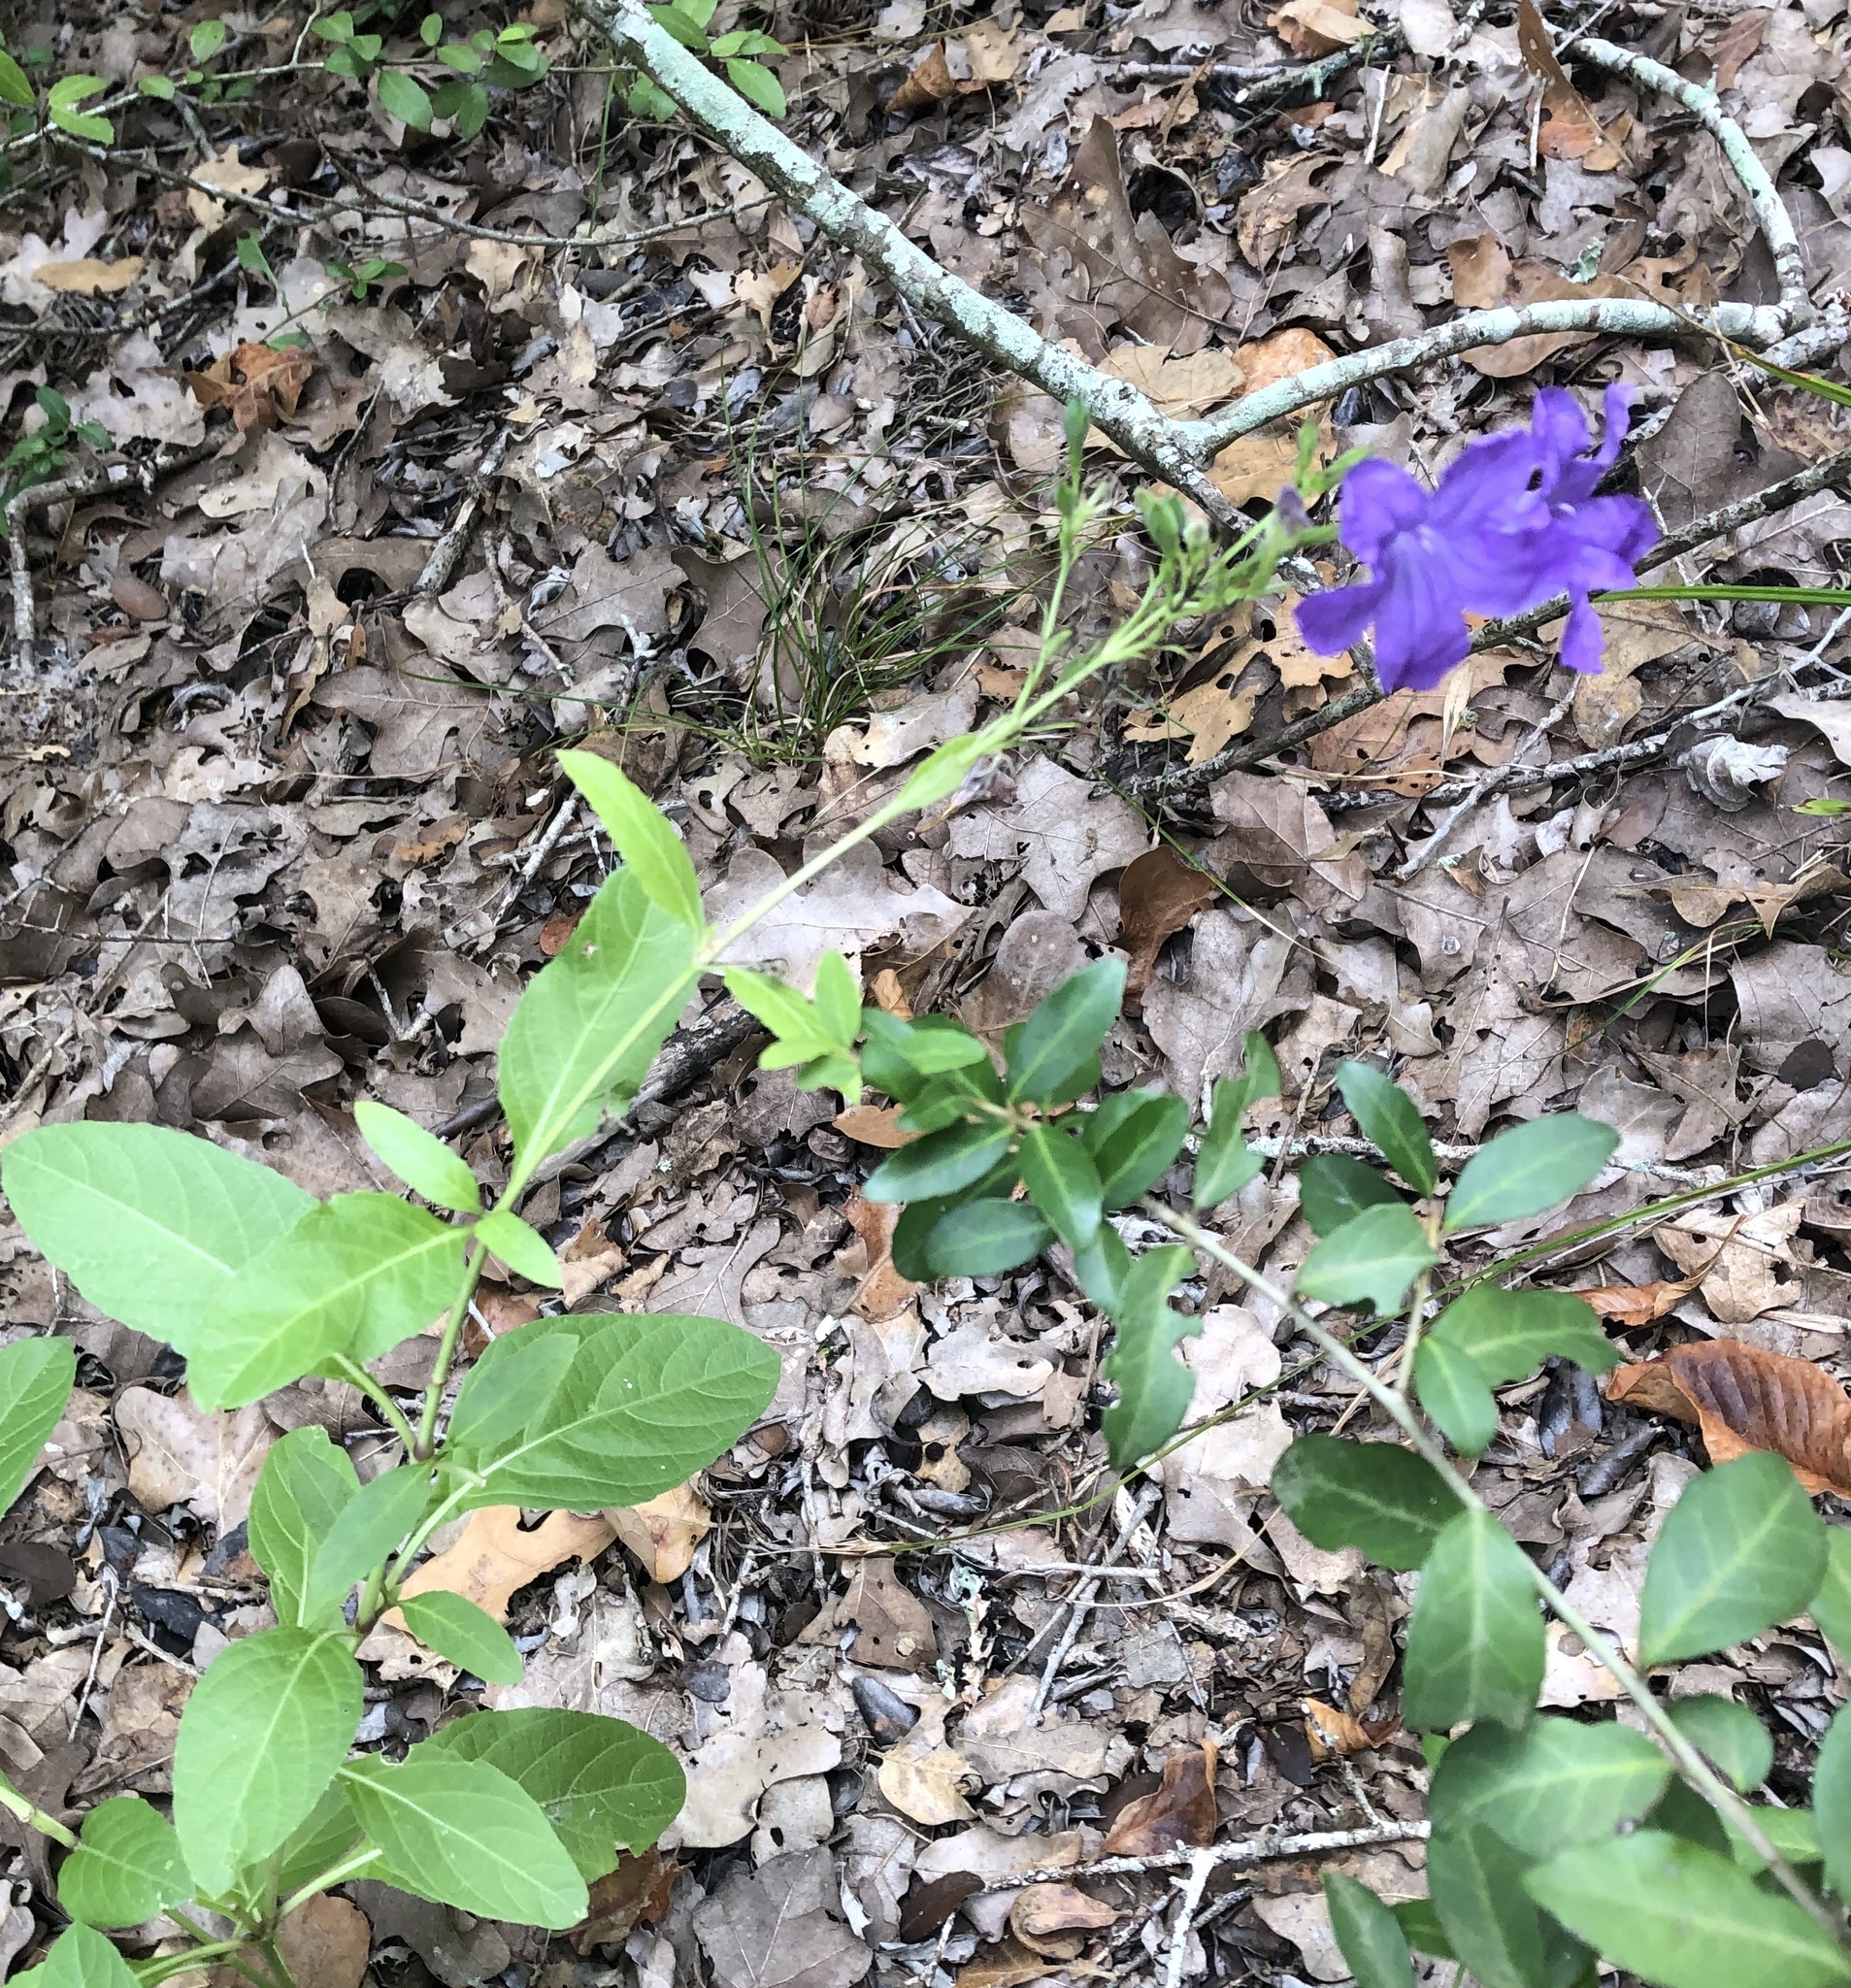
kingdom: Plantae
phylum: Tracheophyta
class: Magnoliopsida
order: Lamiales
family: Acanthaceae
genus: Ruellia
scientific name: Ruellia ciliatiflora
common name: Hairyflower wild petunia
